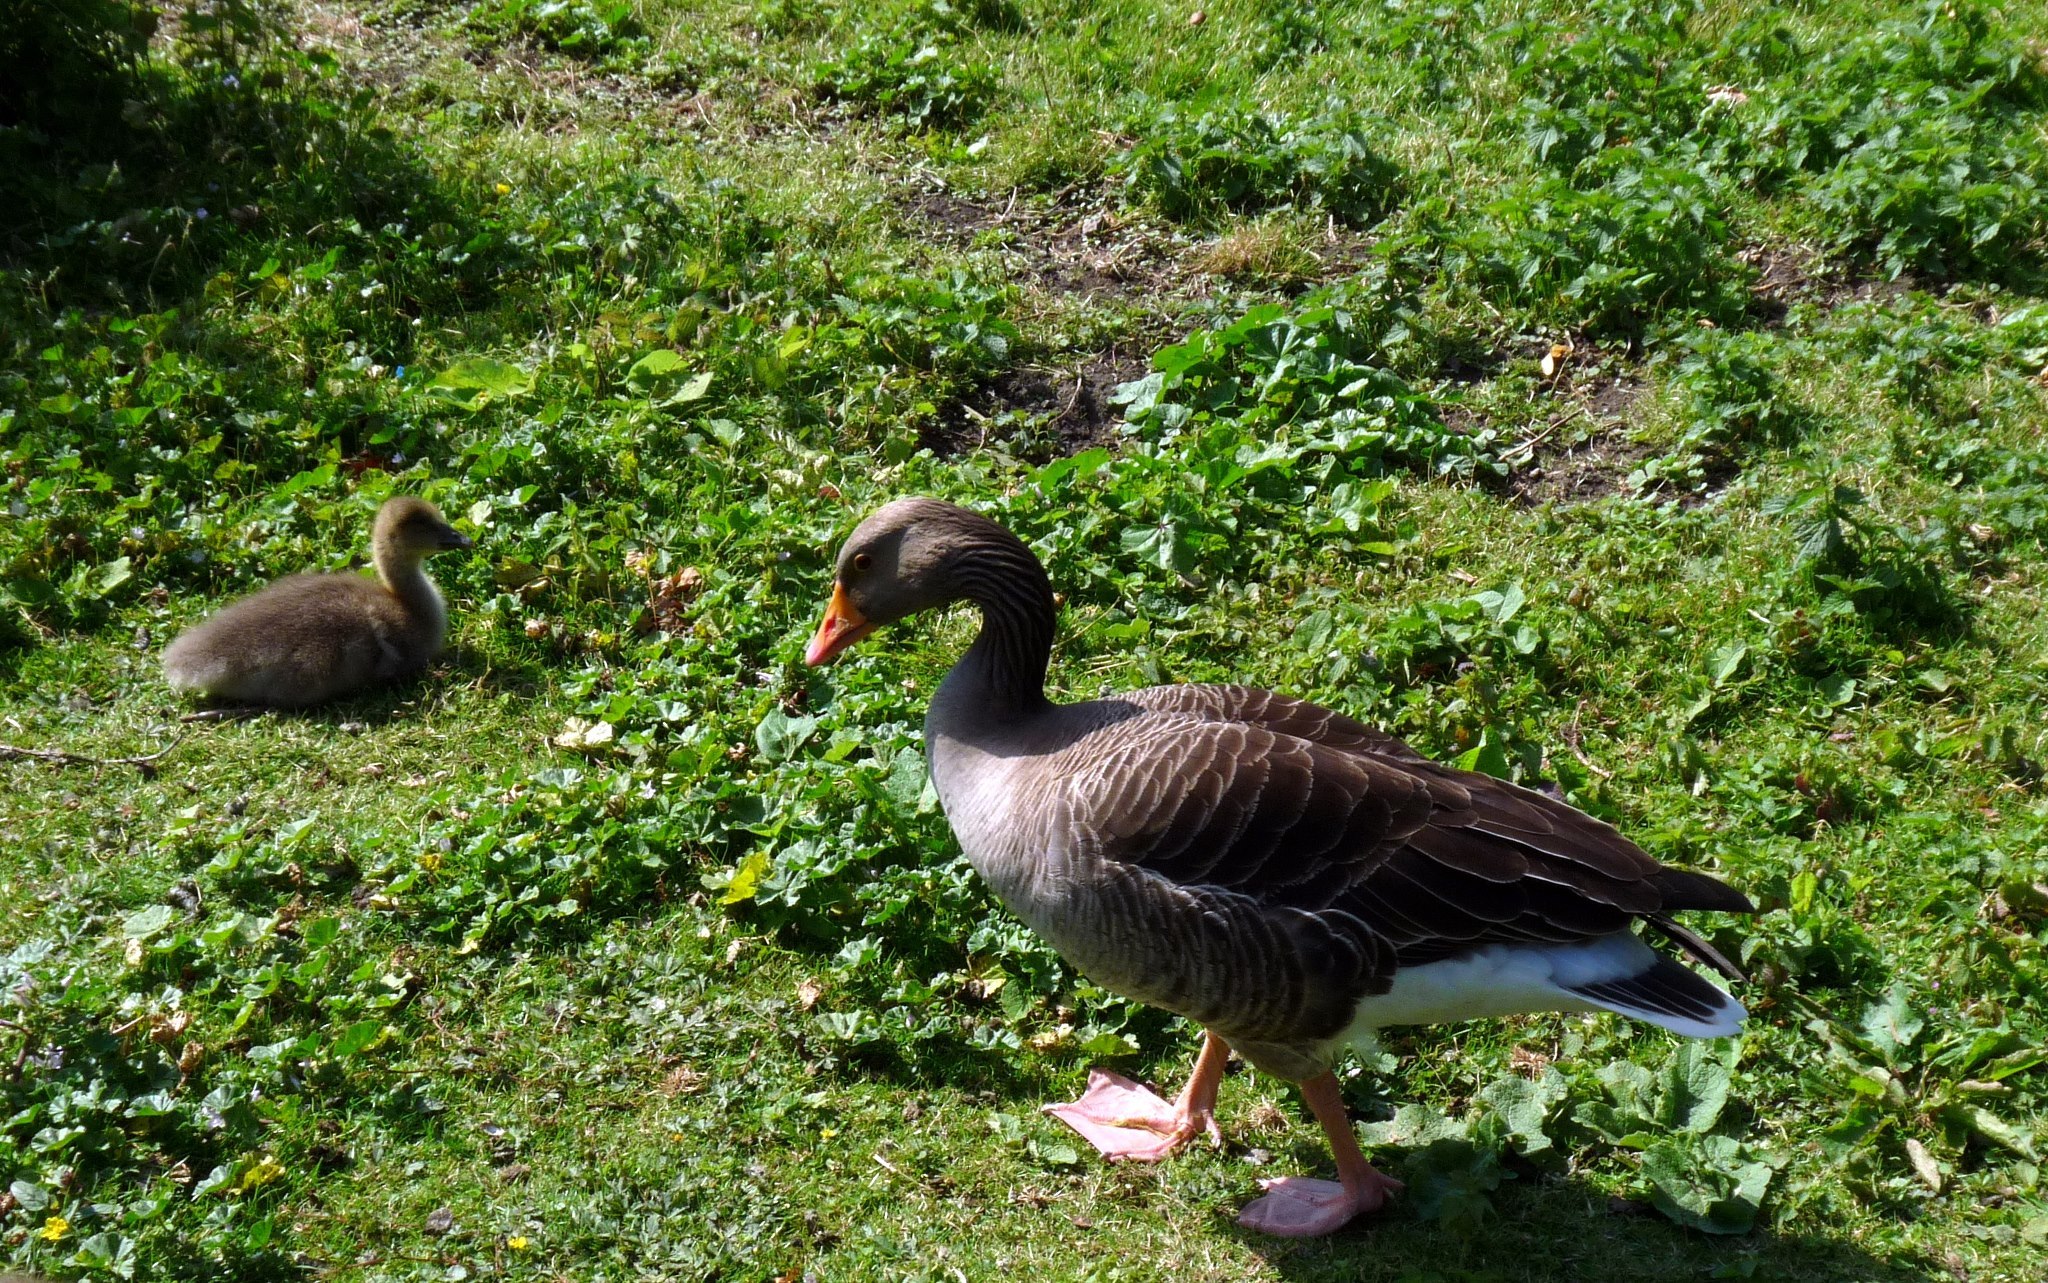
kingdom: Animalia
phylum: Chordata
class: Aves
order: Anseriformes
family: Anatidae
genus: Anser
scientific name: Anser anser
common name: Greylag goose
